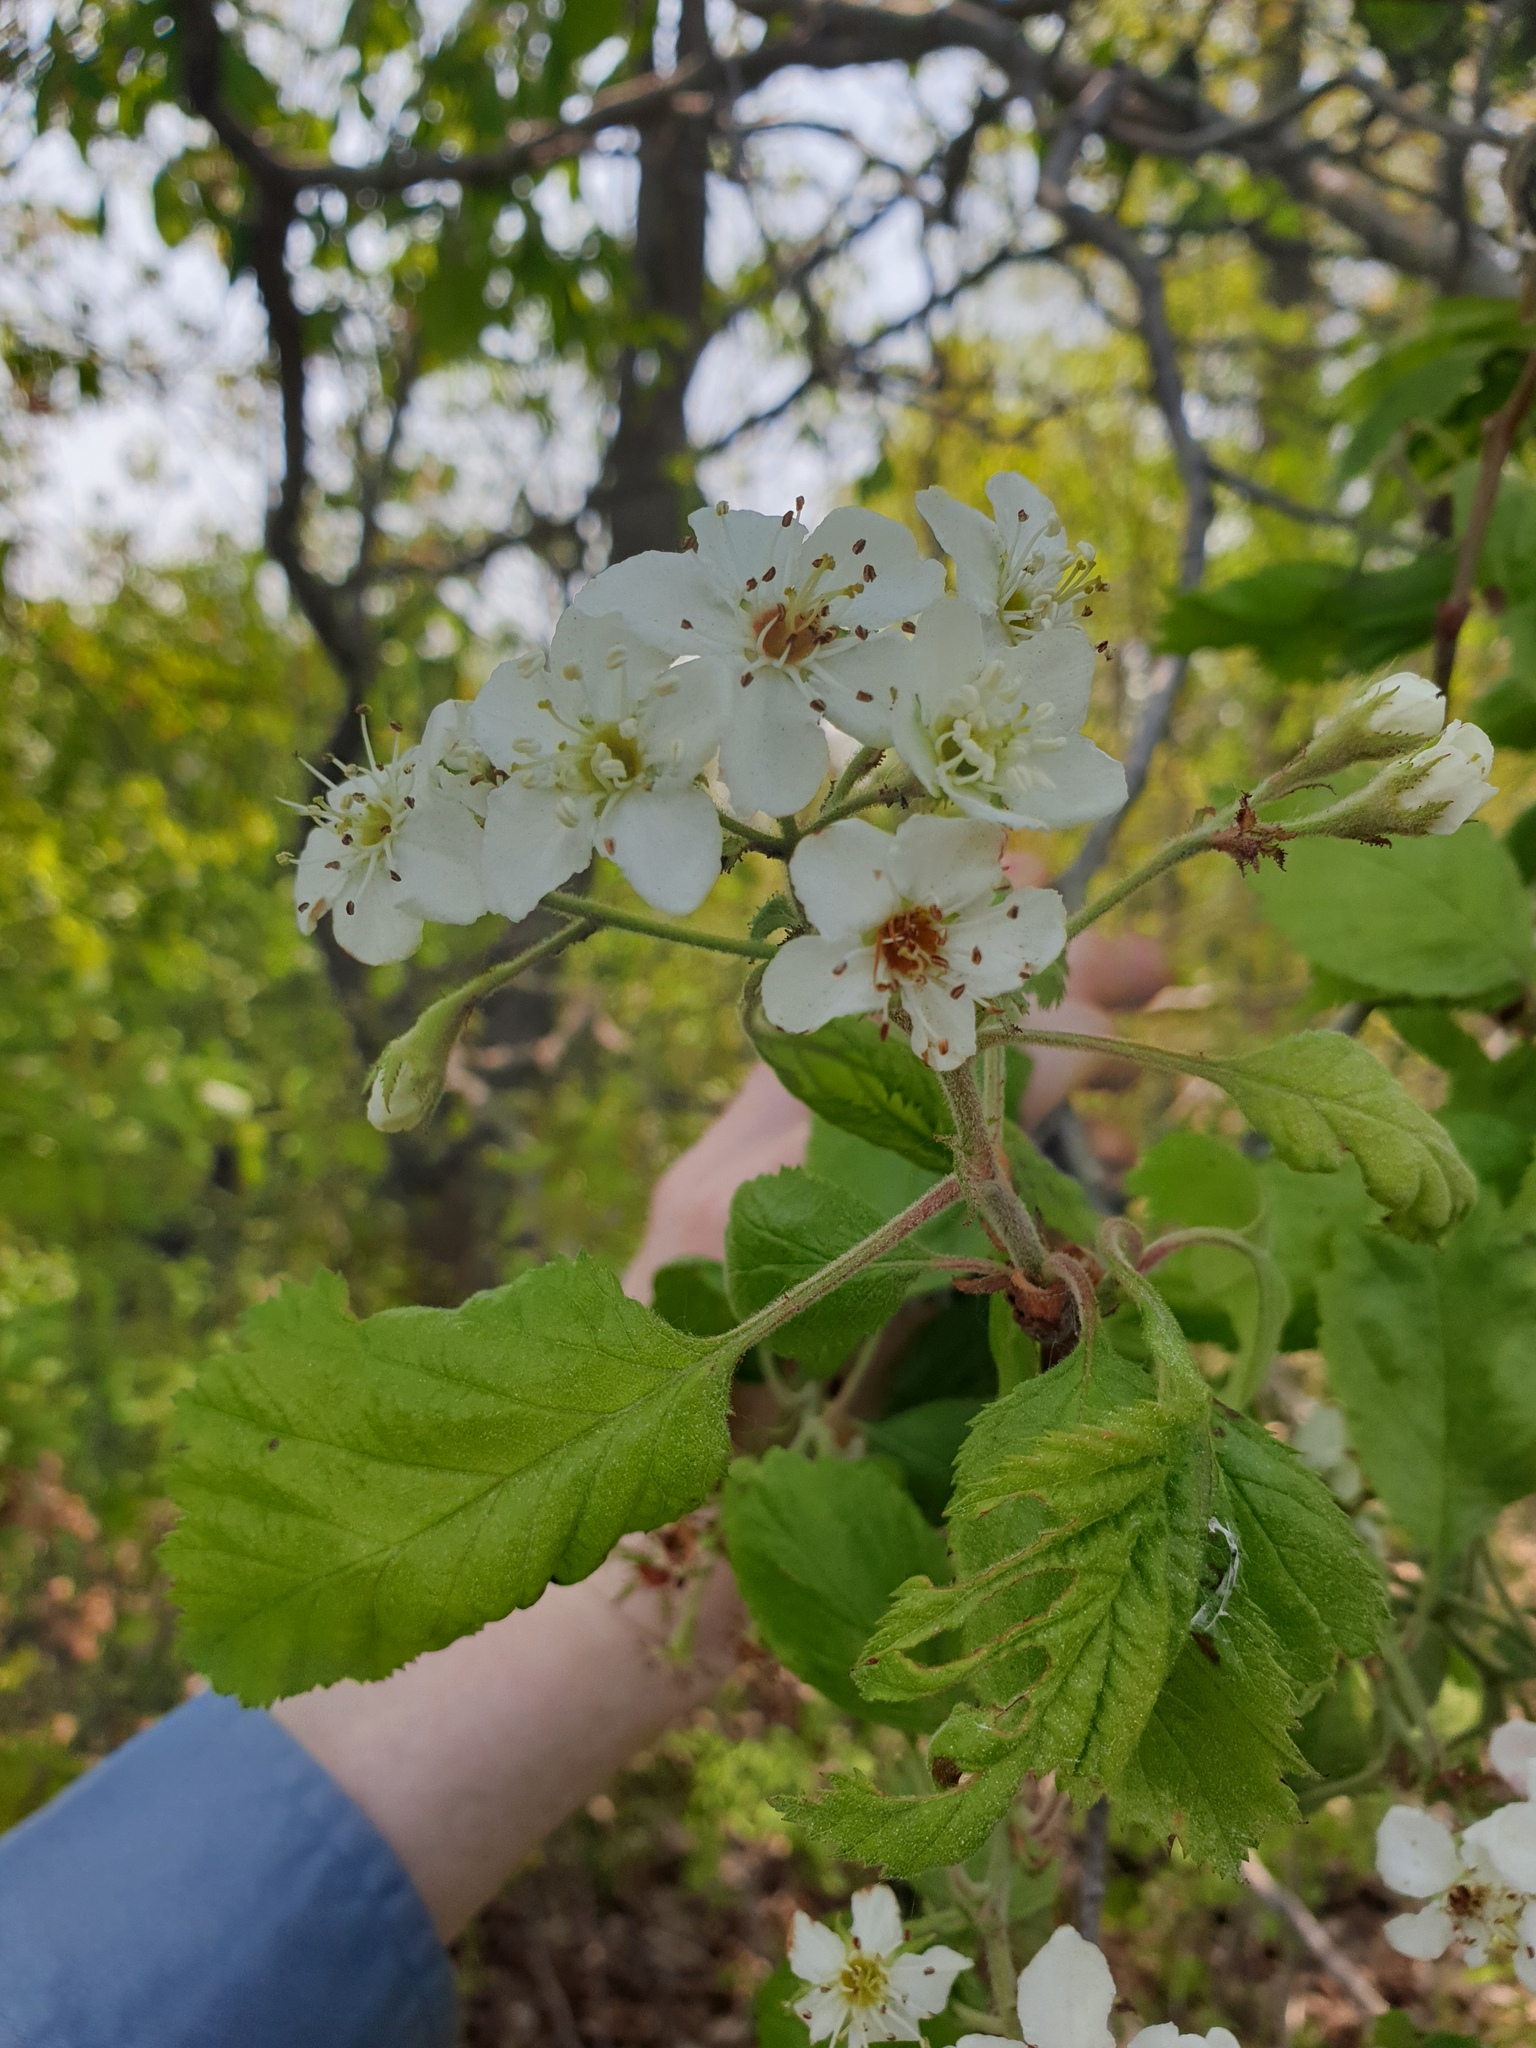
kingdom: Plantae
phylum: Tracheophyta
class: Magnoliopsida
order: Rosales
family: Rosaceae
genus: Crataegus
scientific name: Crataegus mollis
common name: Downy hawthorn
